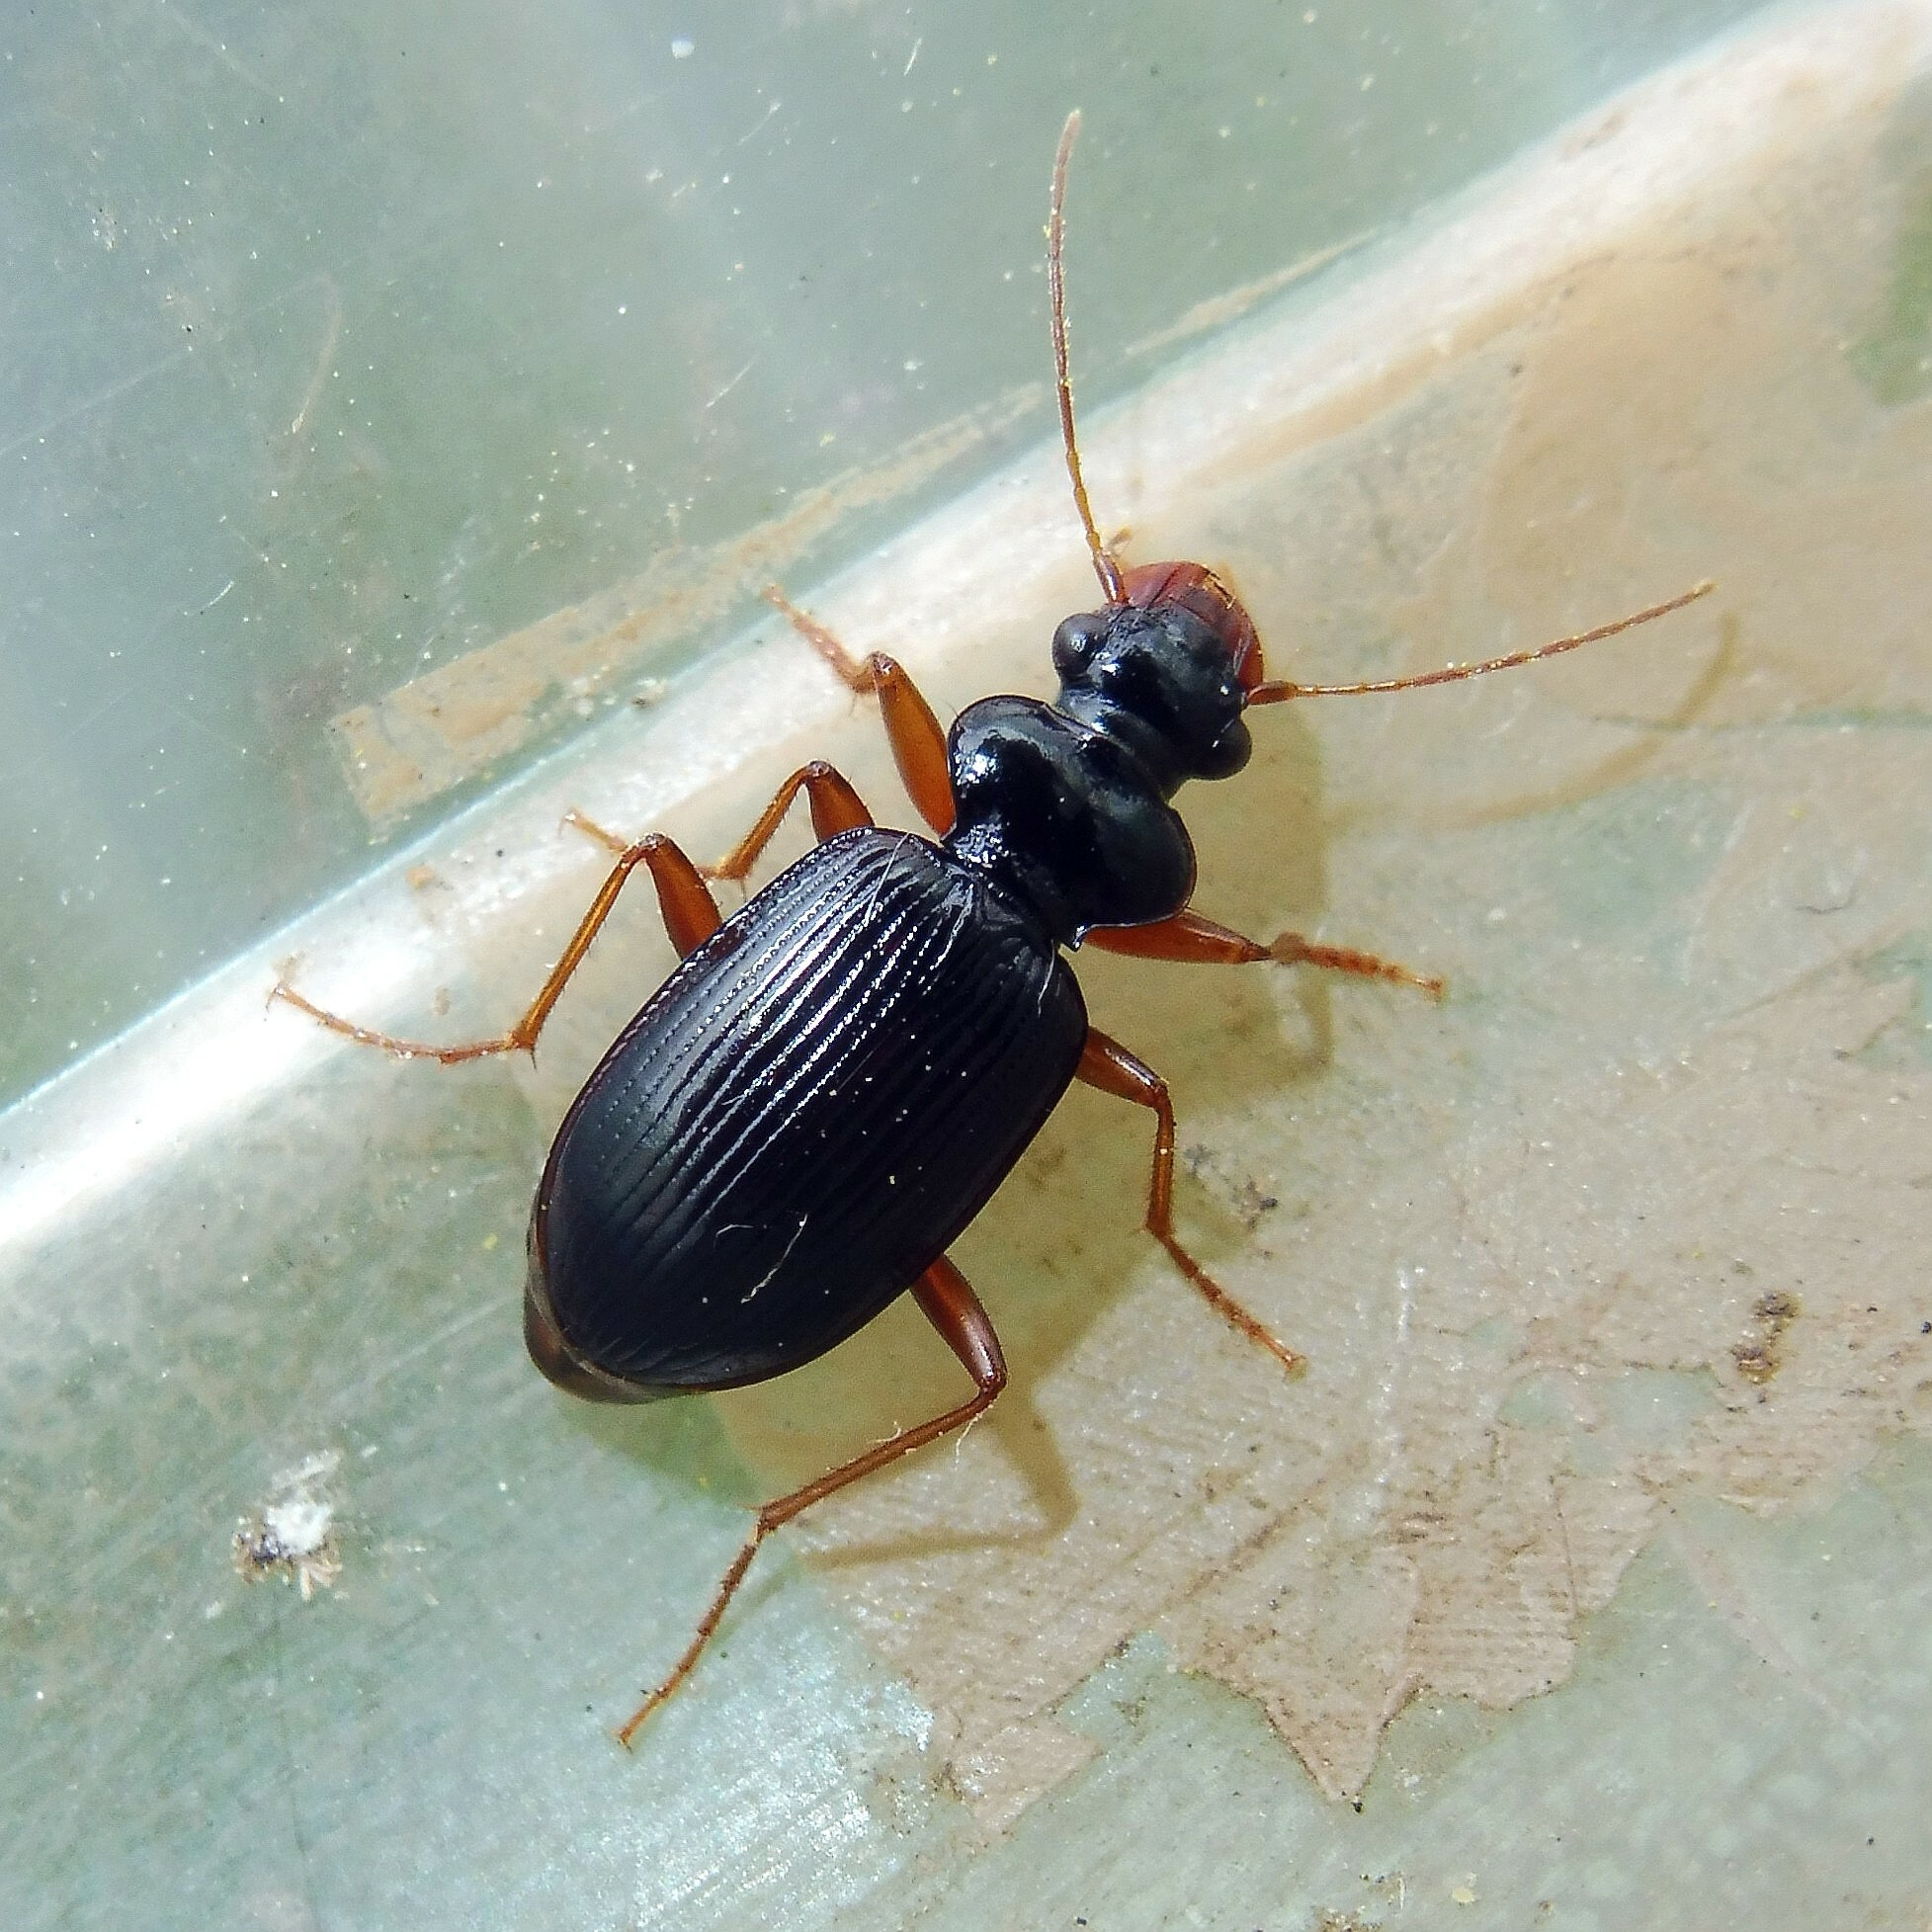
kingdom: Animalia
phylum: Arthropoda
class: Insecta
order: Coleoptera
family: Carabidae
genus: Leistus
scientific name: Leistus fulvibarbis
